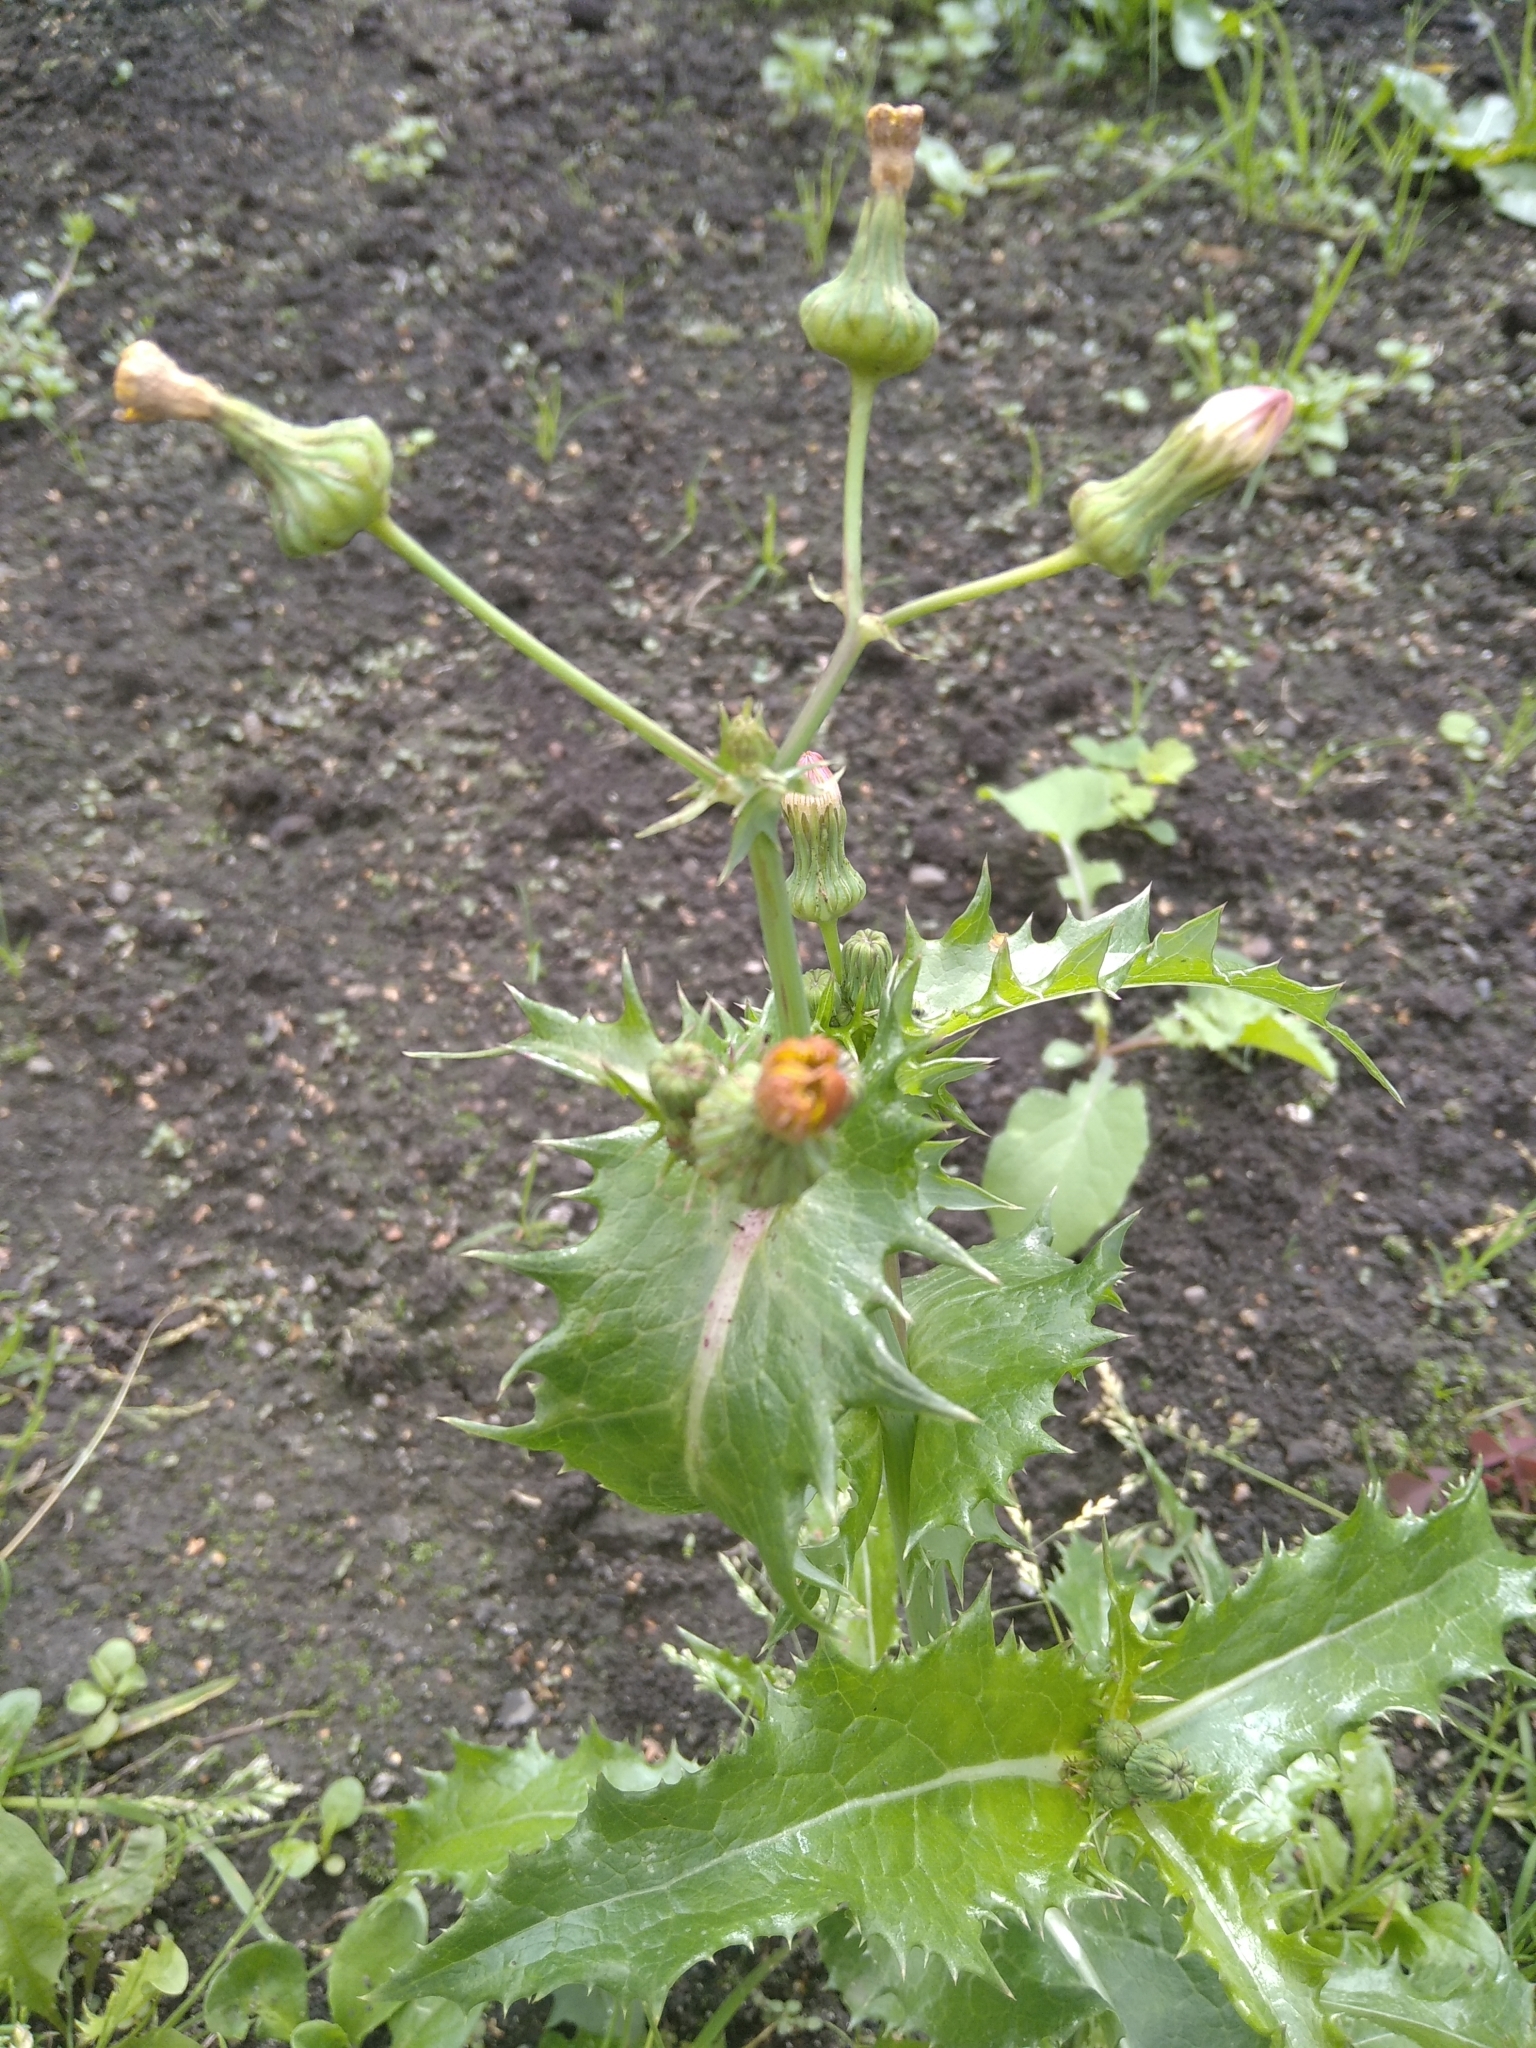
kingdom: Plantae
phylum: Tracheophyta
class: Magnoliopsida
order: Asterales
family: Asteraceae
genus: Sonchus
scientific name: Sonchus asper
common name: Prickly sow-thistle
